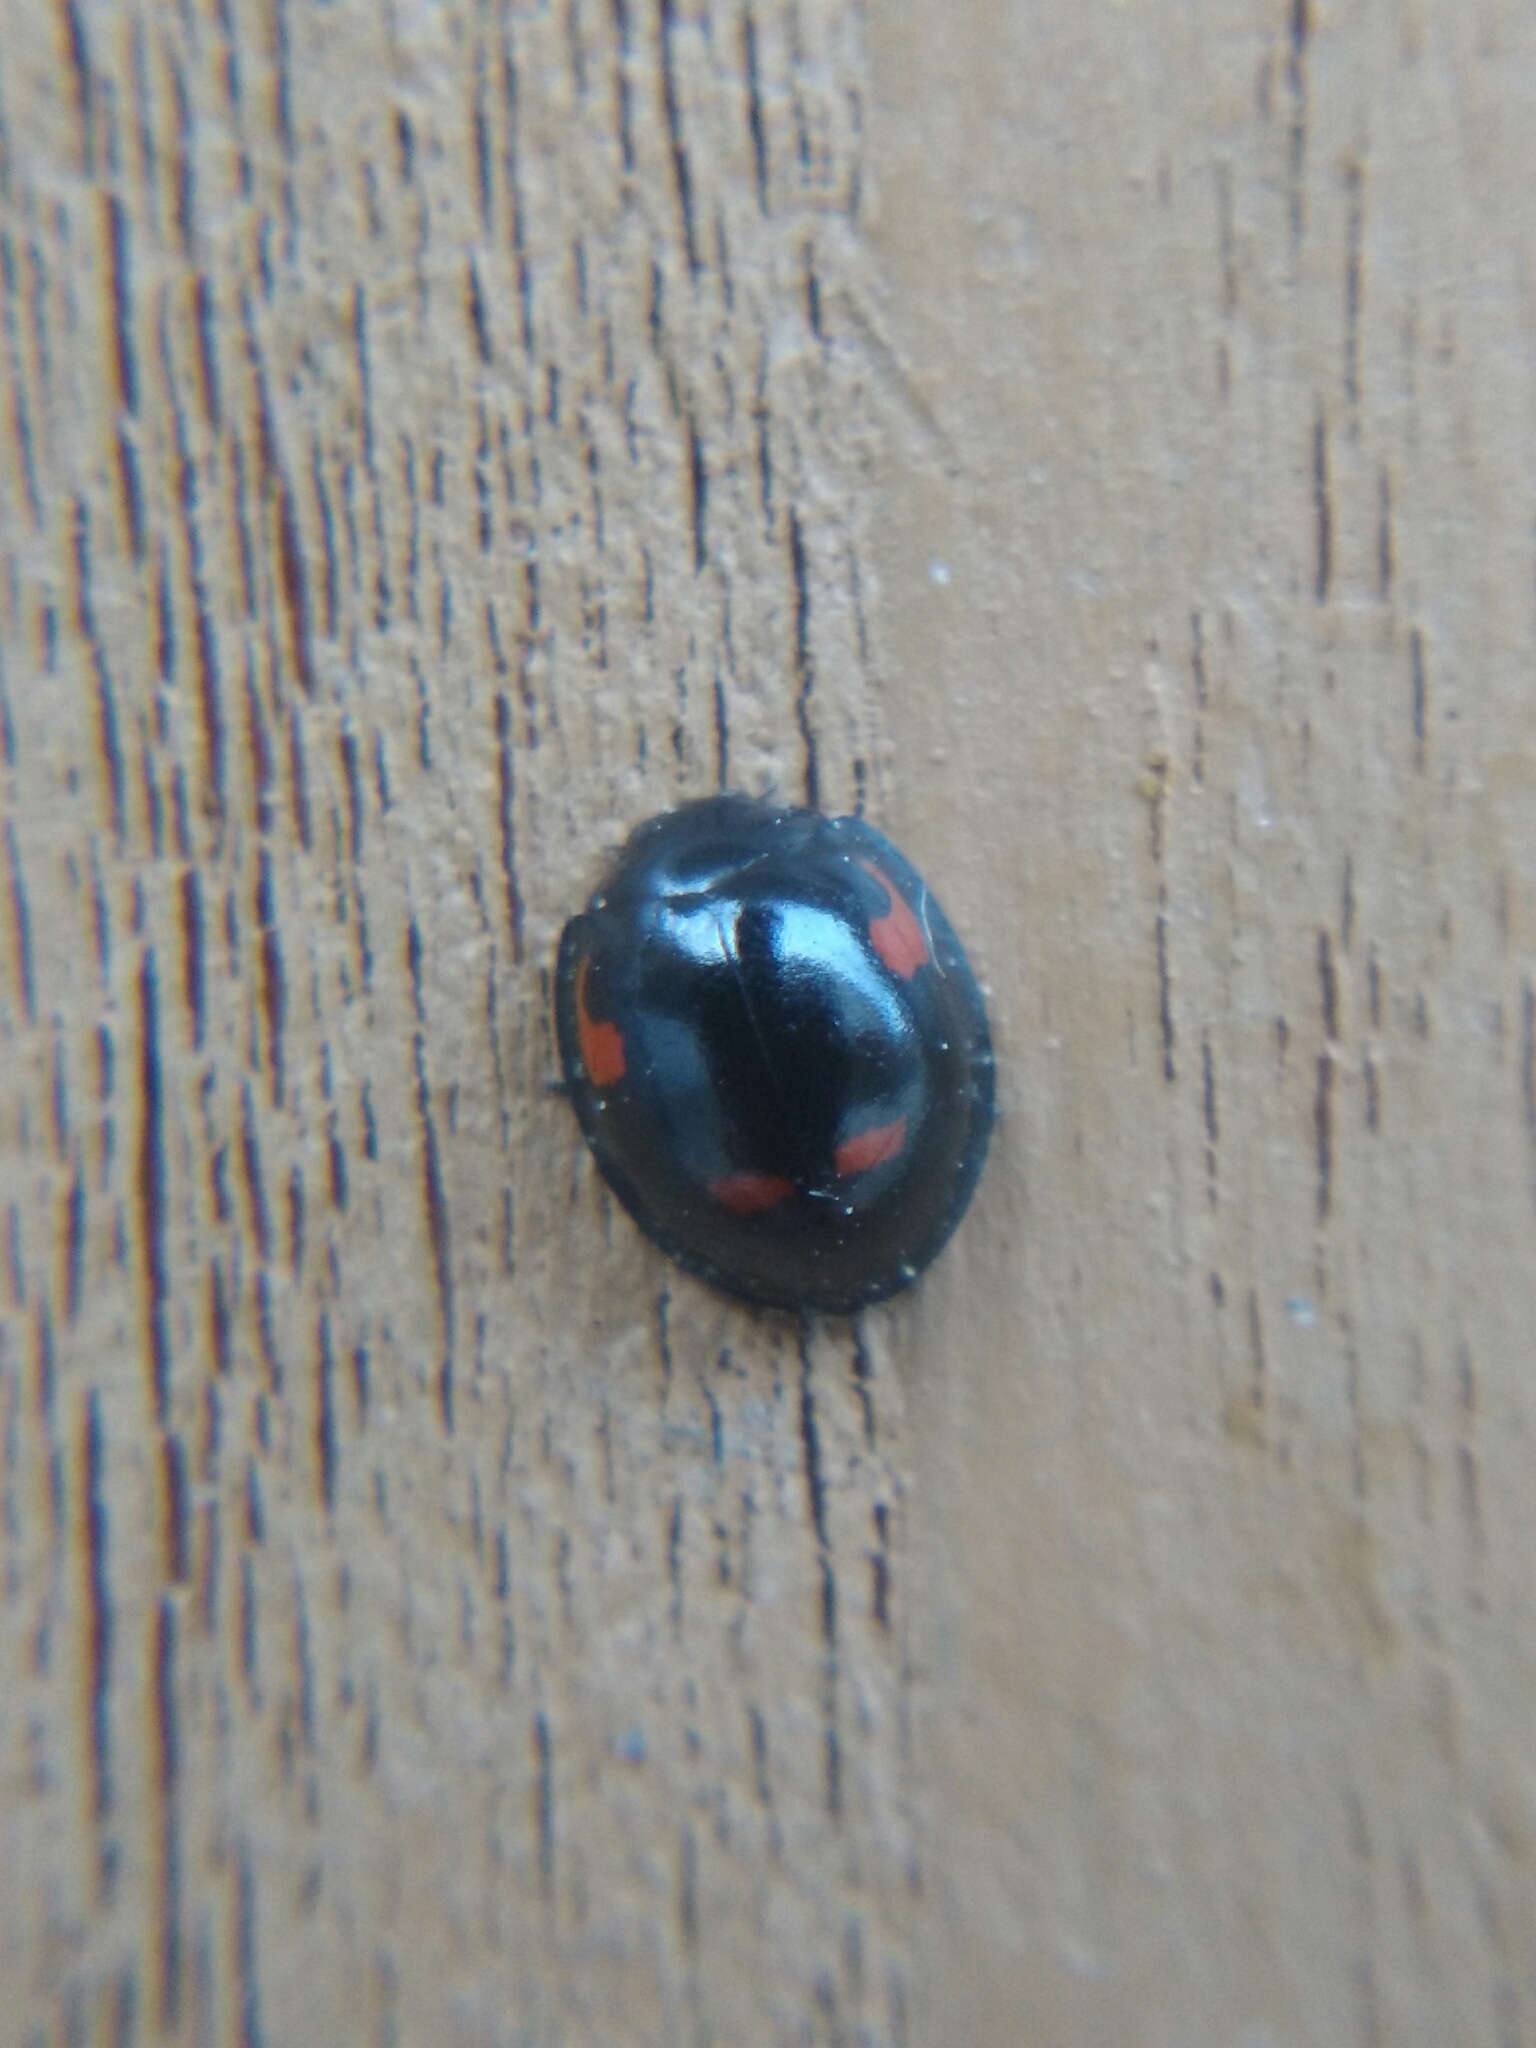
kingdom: Animalia
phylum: Arthropoda
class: Insecta
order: Coleoptera
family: Coccinellidae
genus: Brumus
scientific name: Brumus quadripustulatus
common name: Ladybird beetle
